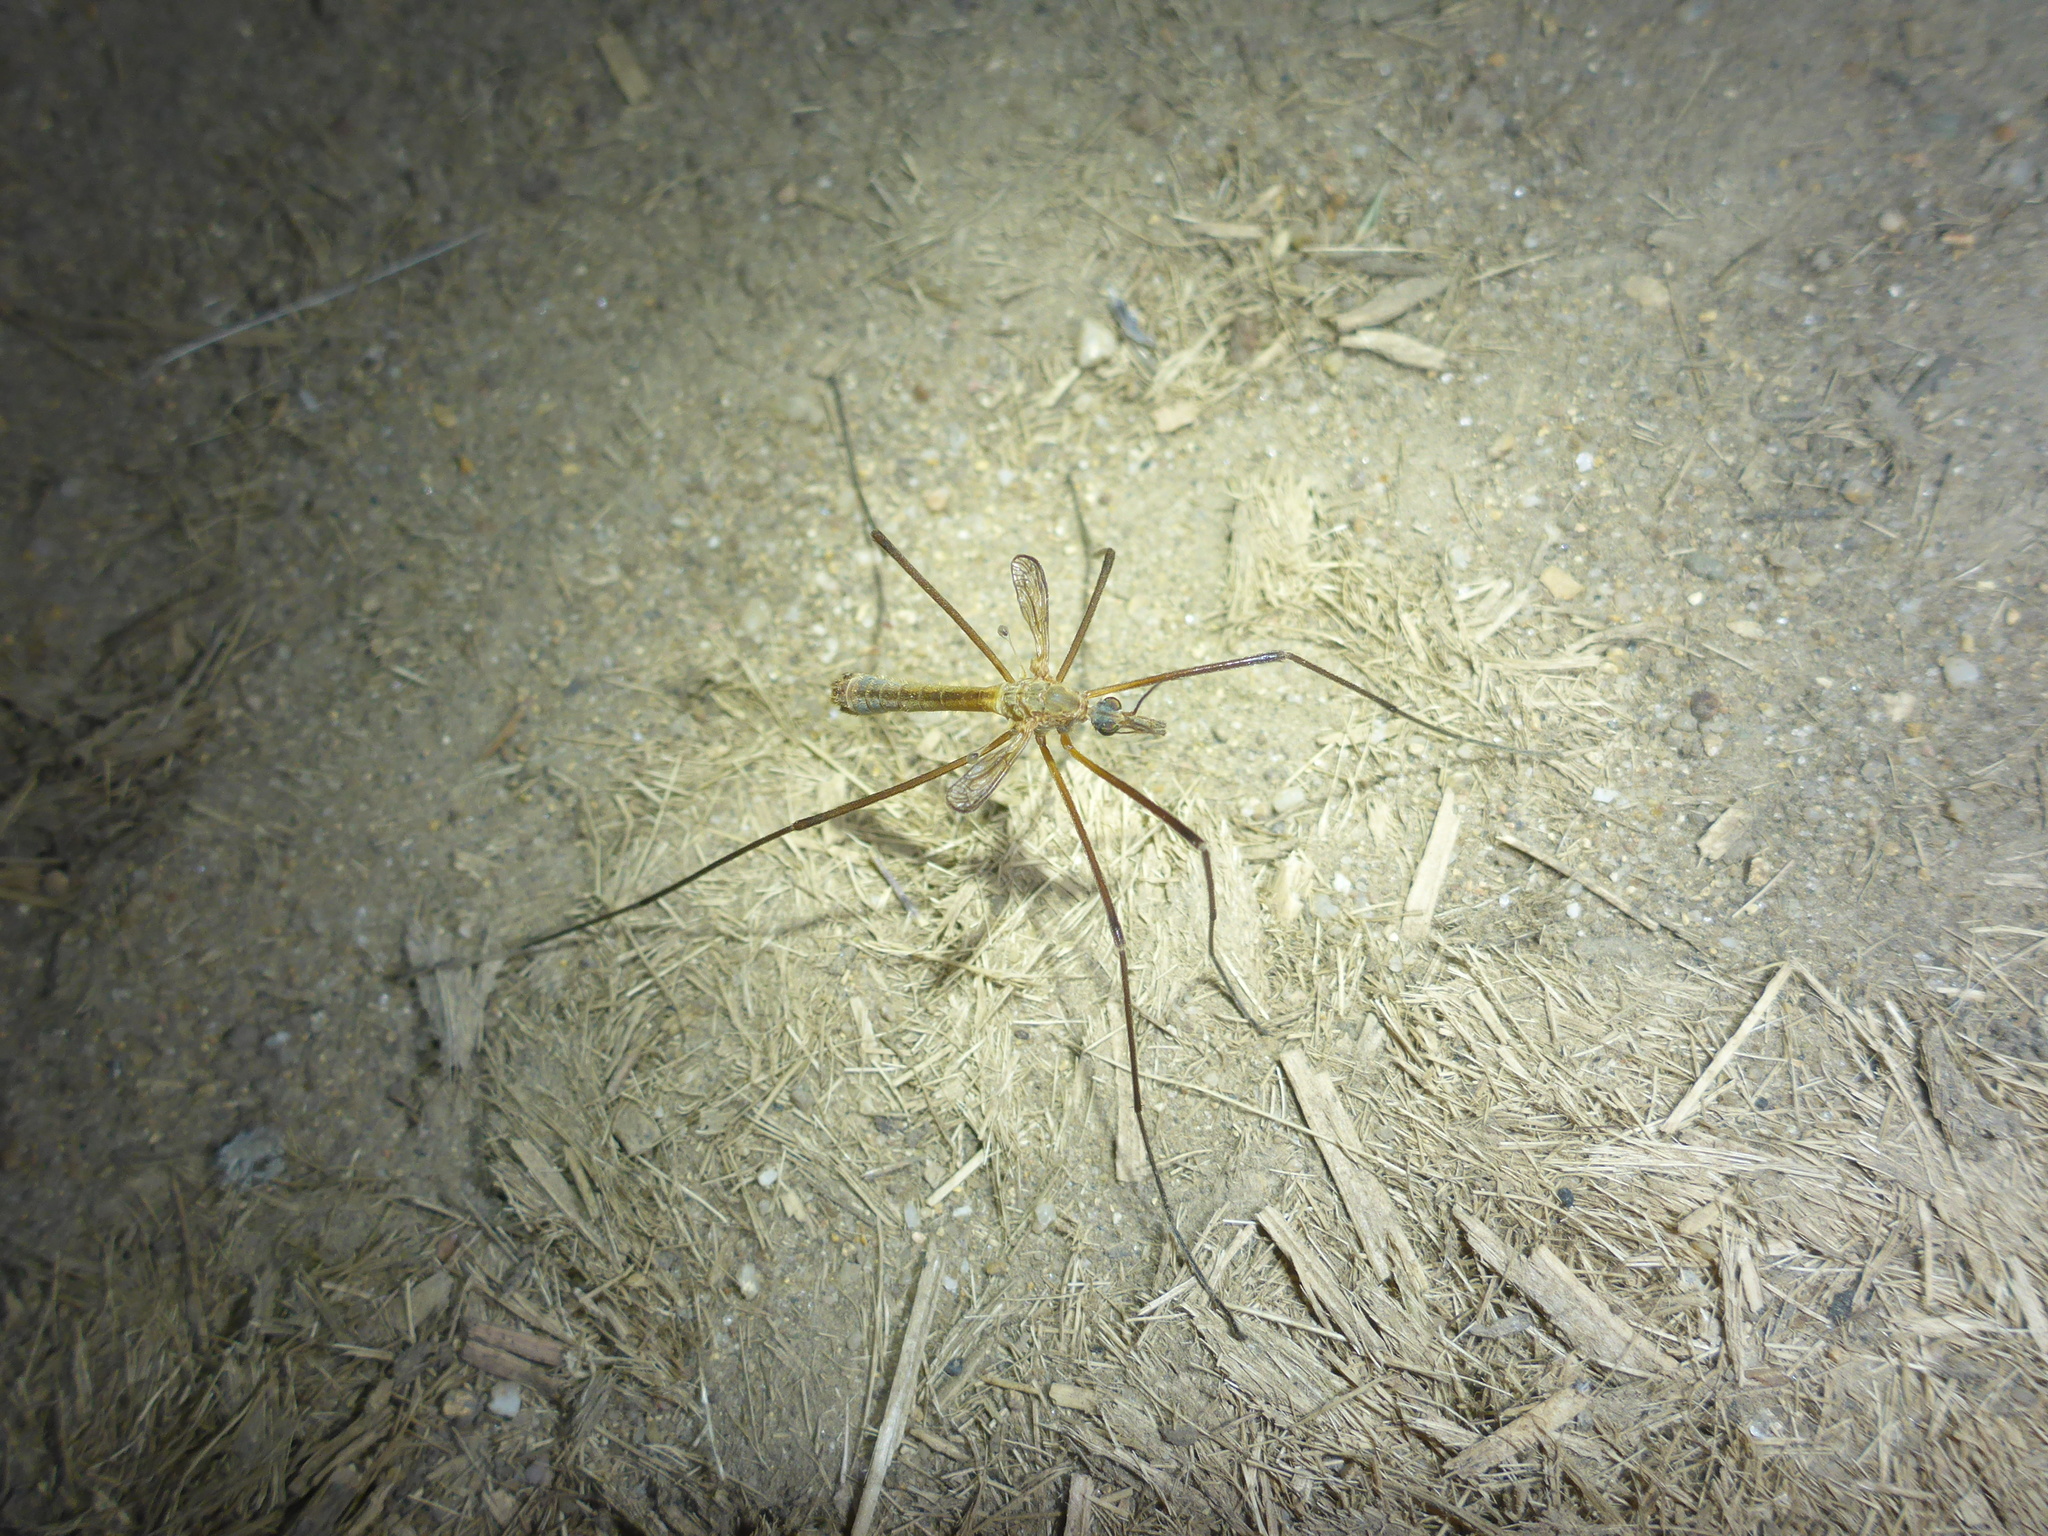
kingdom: Animalia
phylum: Arthropoda
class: Insecta
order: Diptera
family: Tipulidae
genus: Tipula
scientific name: Tipula vestigipennis
